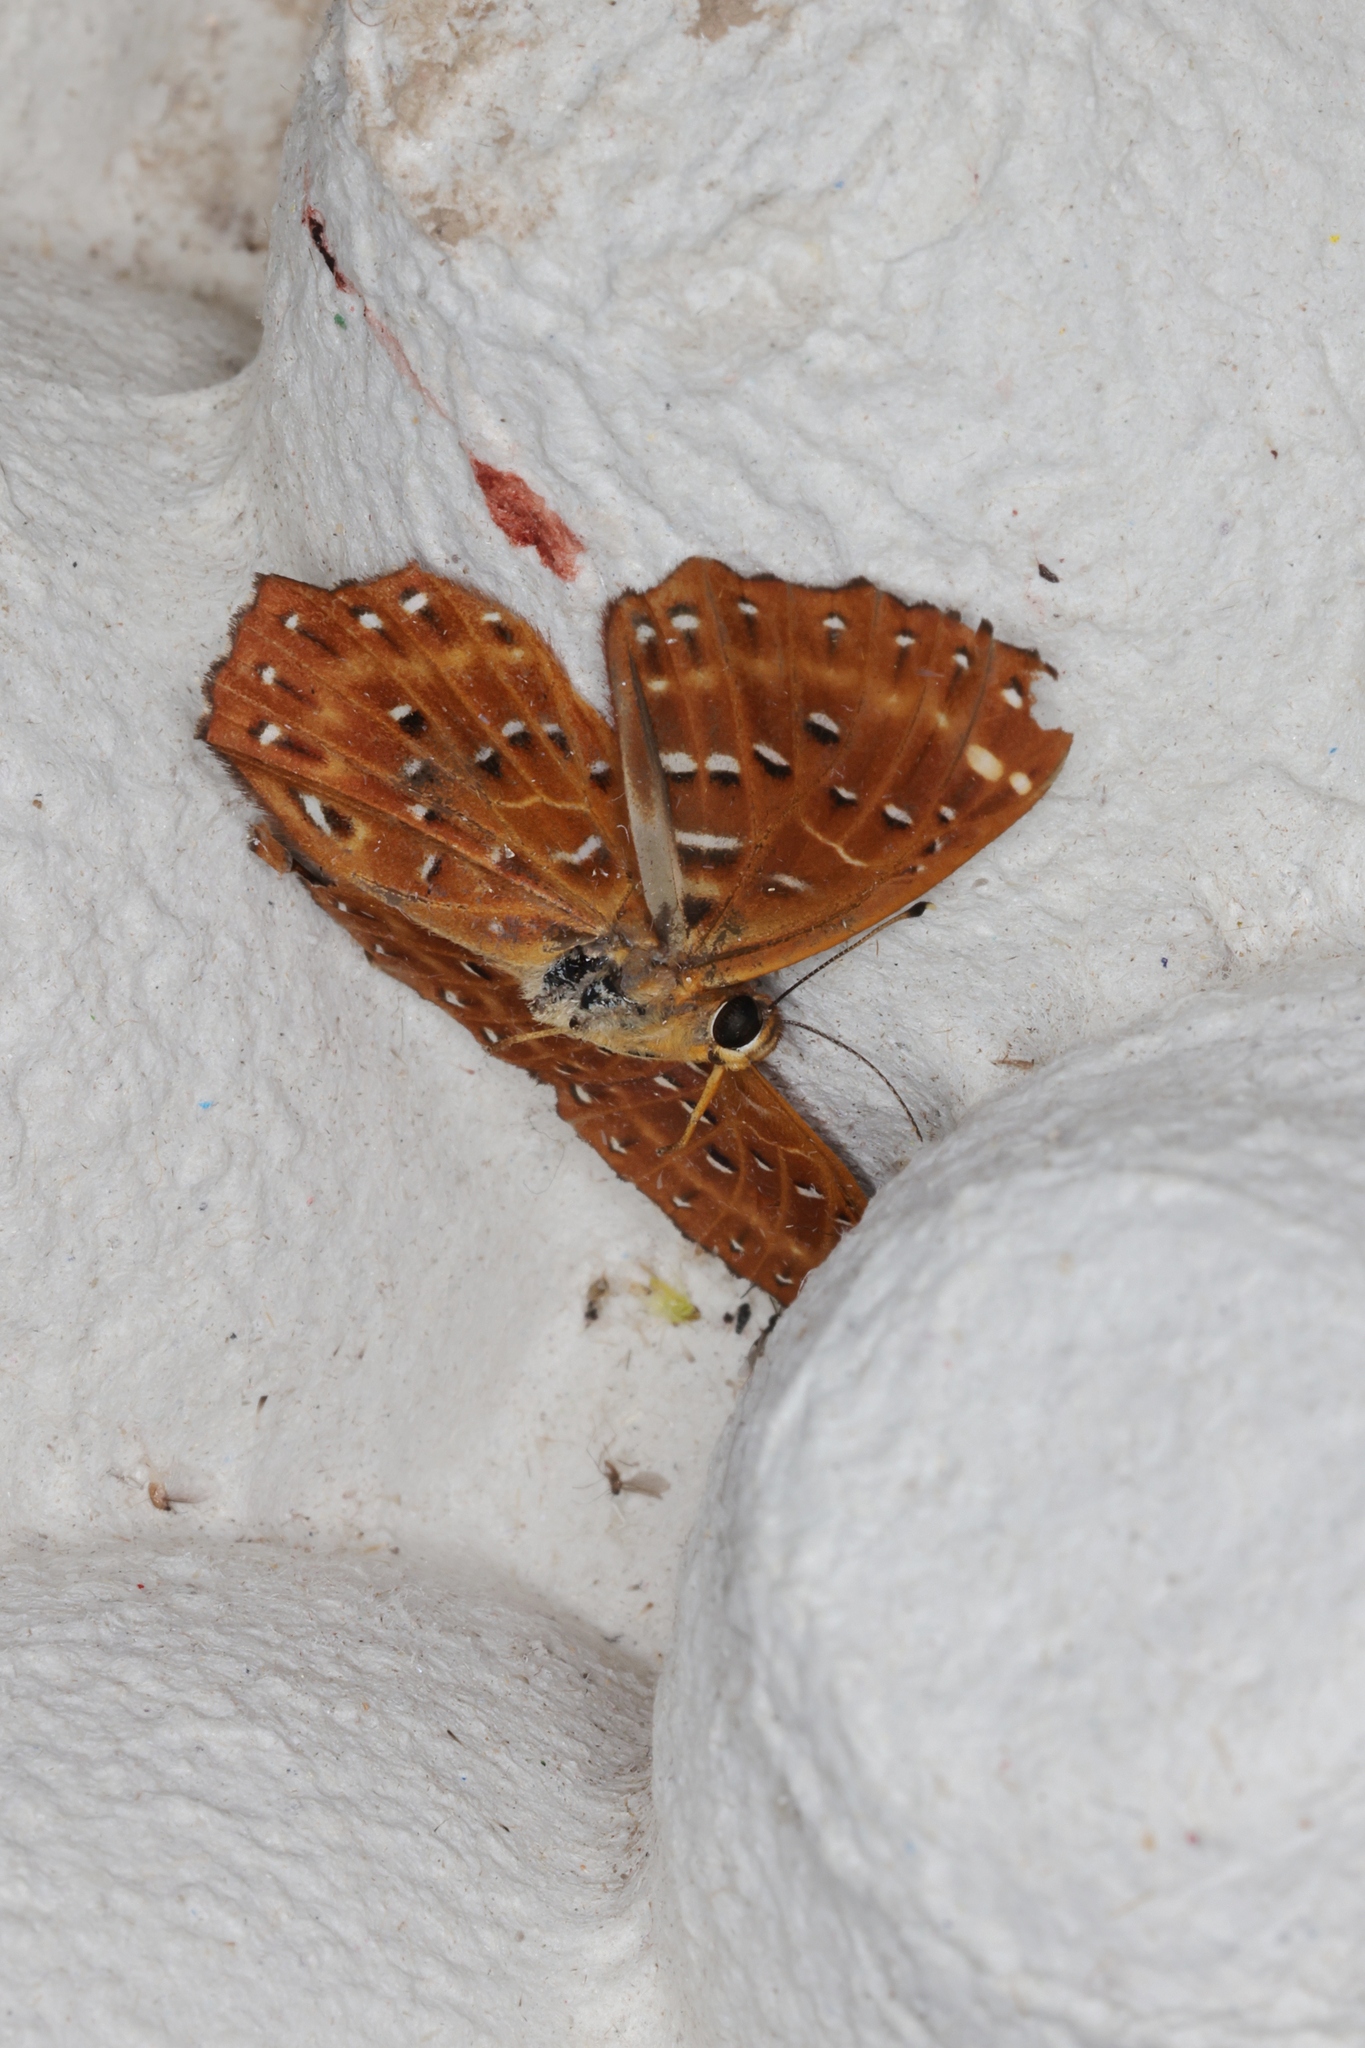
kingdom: Animalia
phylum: Arthropoda
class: Insecta
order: Lepidoptera
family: Riodinidae
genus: Zemeros
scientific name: Zemeros flegyas
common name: Punchinello
